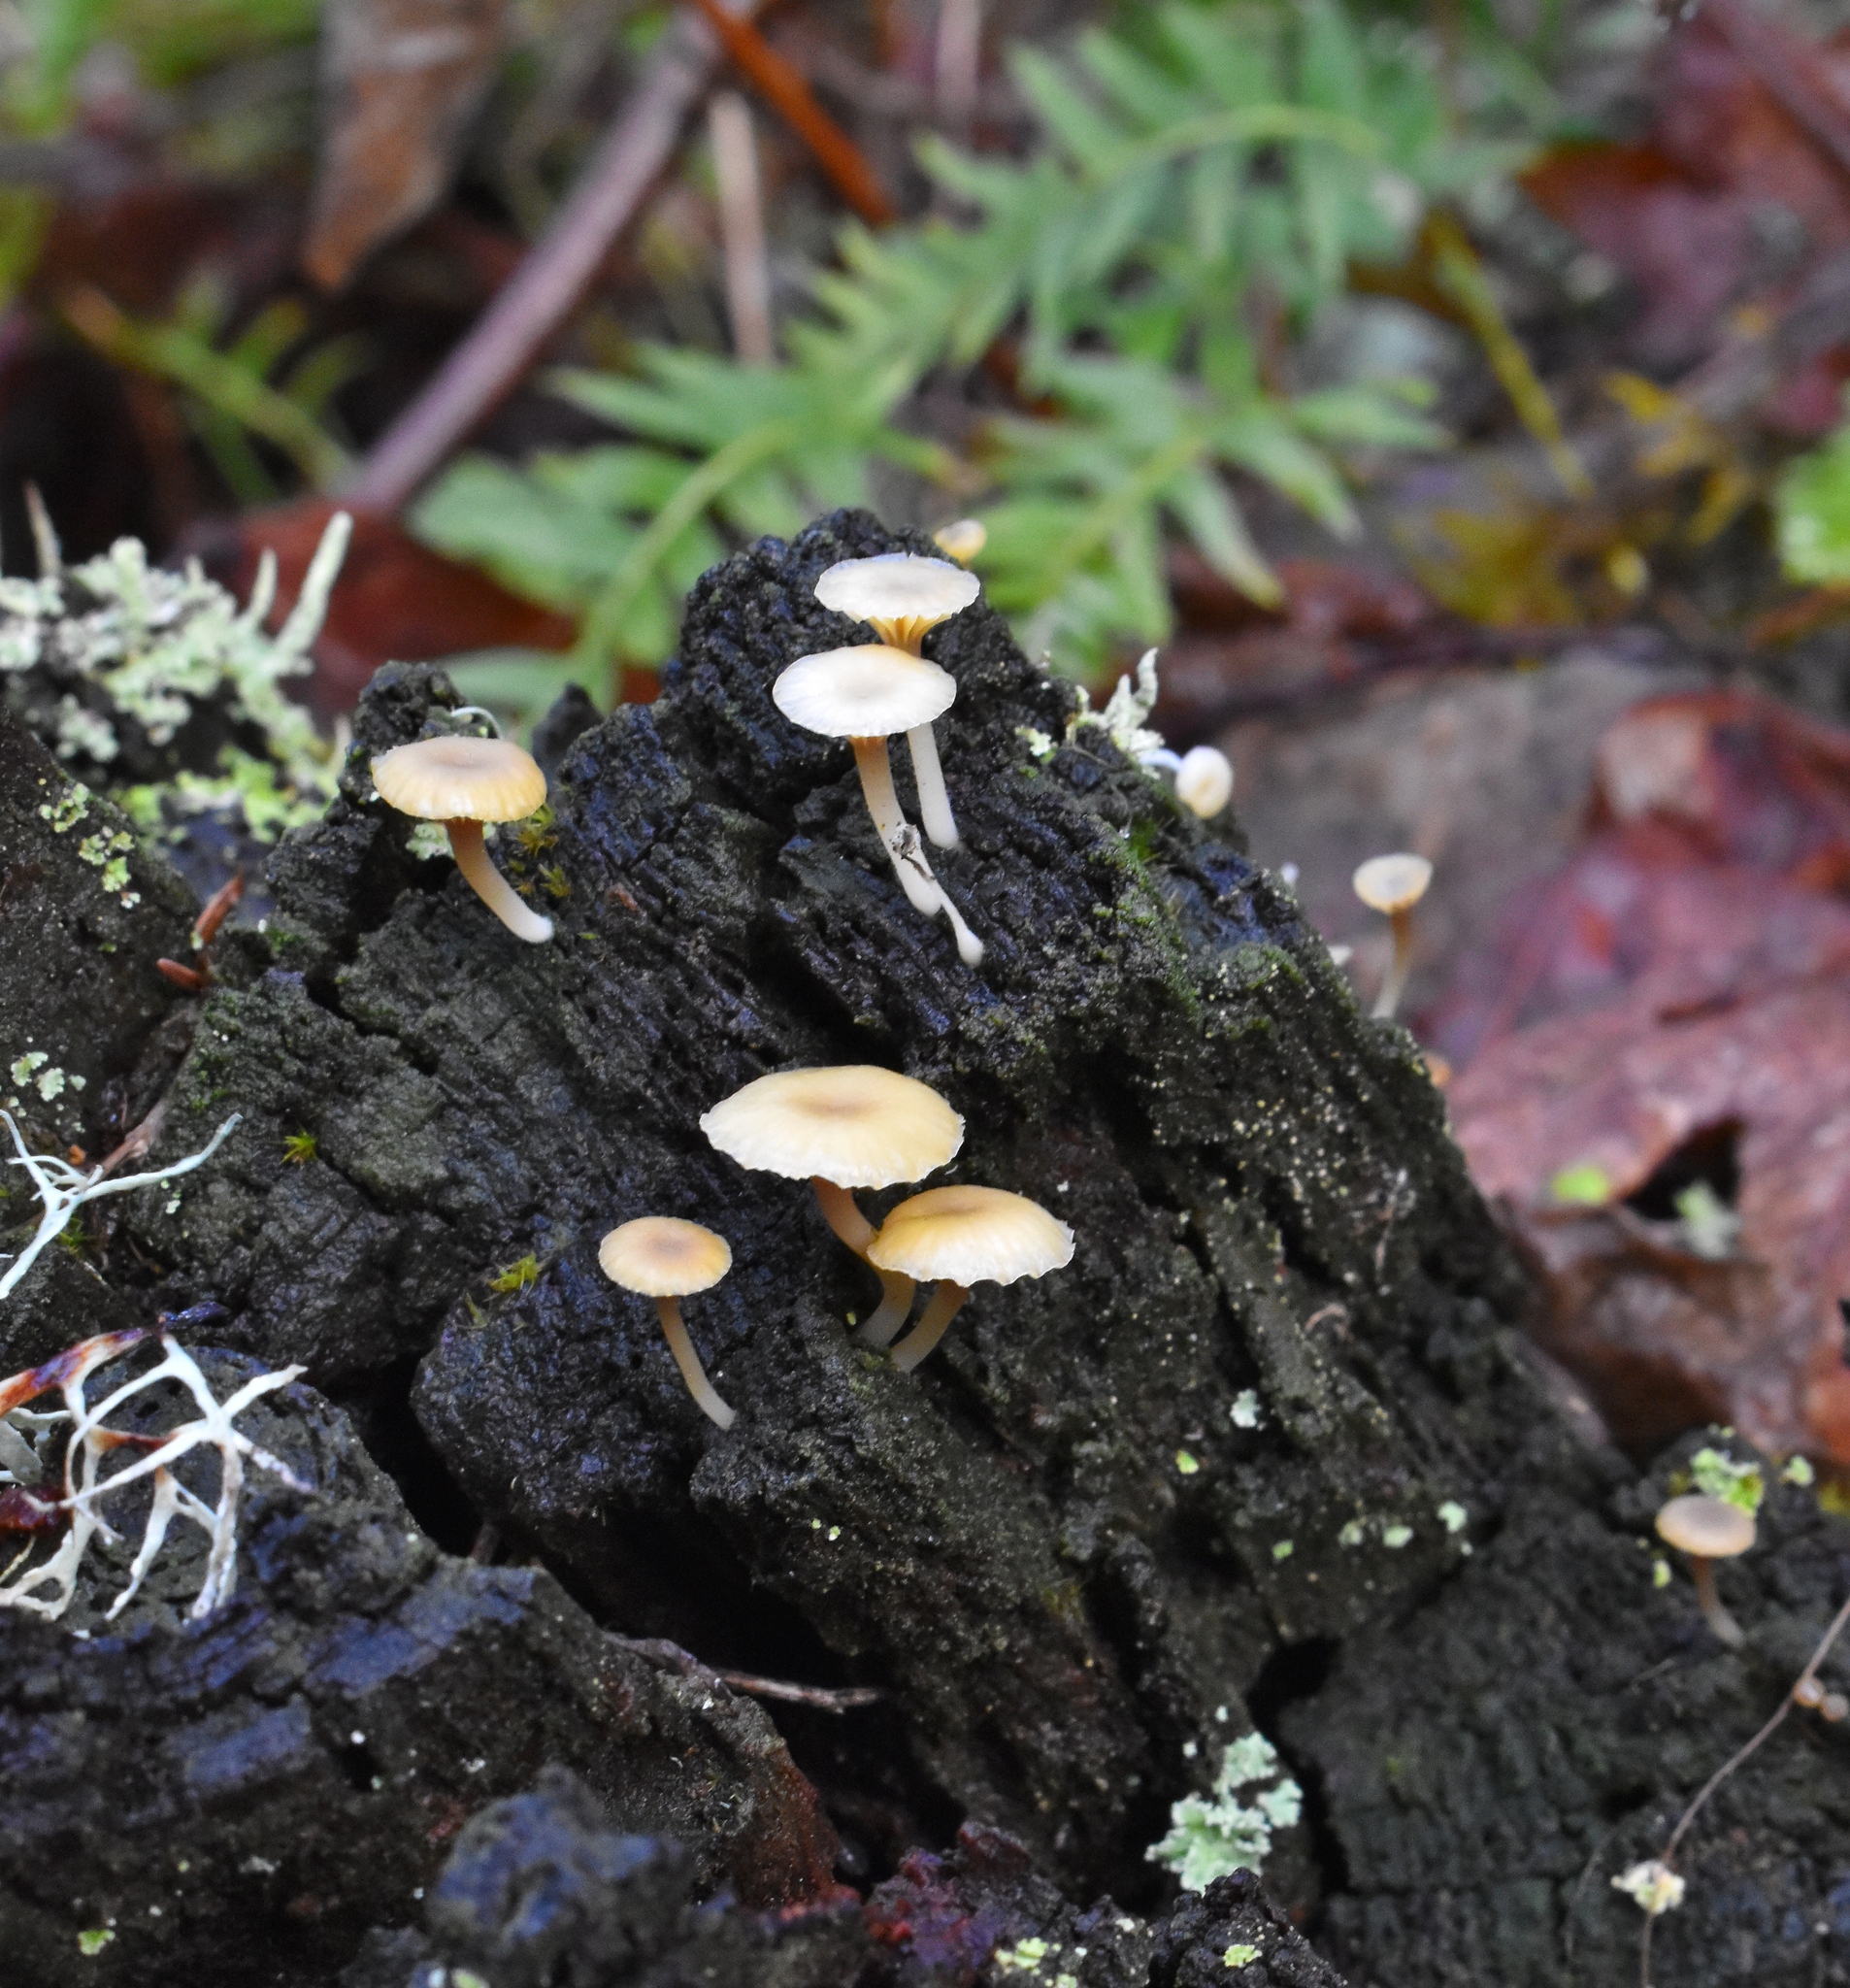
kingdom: Fungi
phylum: Basidiomycota
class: Agaricomycetes
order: Agaricales
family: Hygrophoraceae
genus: Lichenomphalia
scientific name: Lichenomphalia
